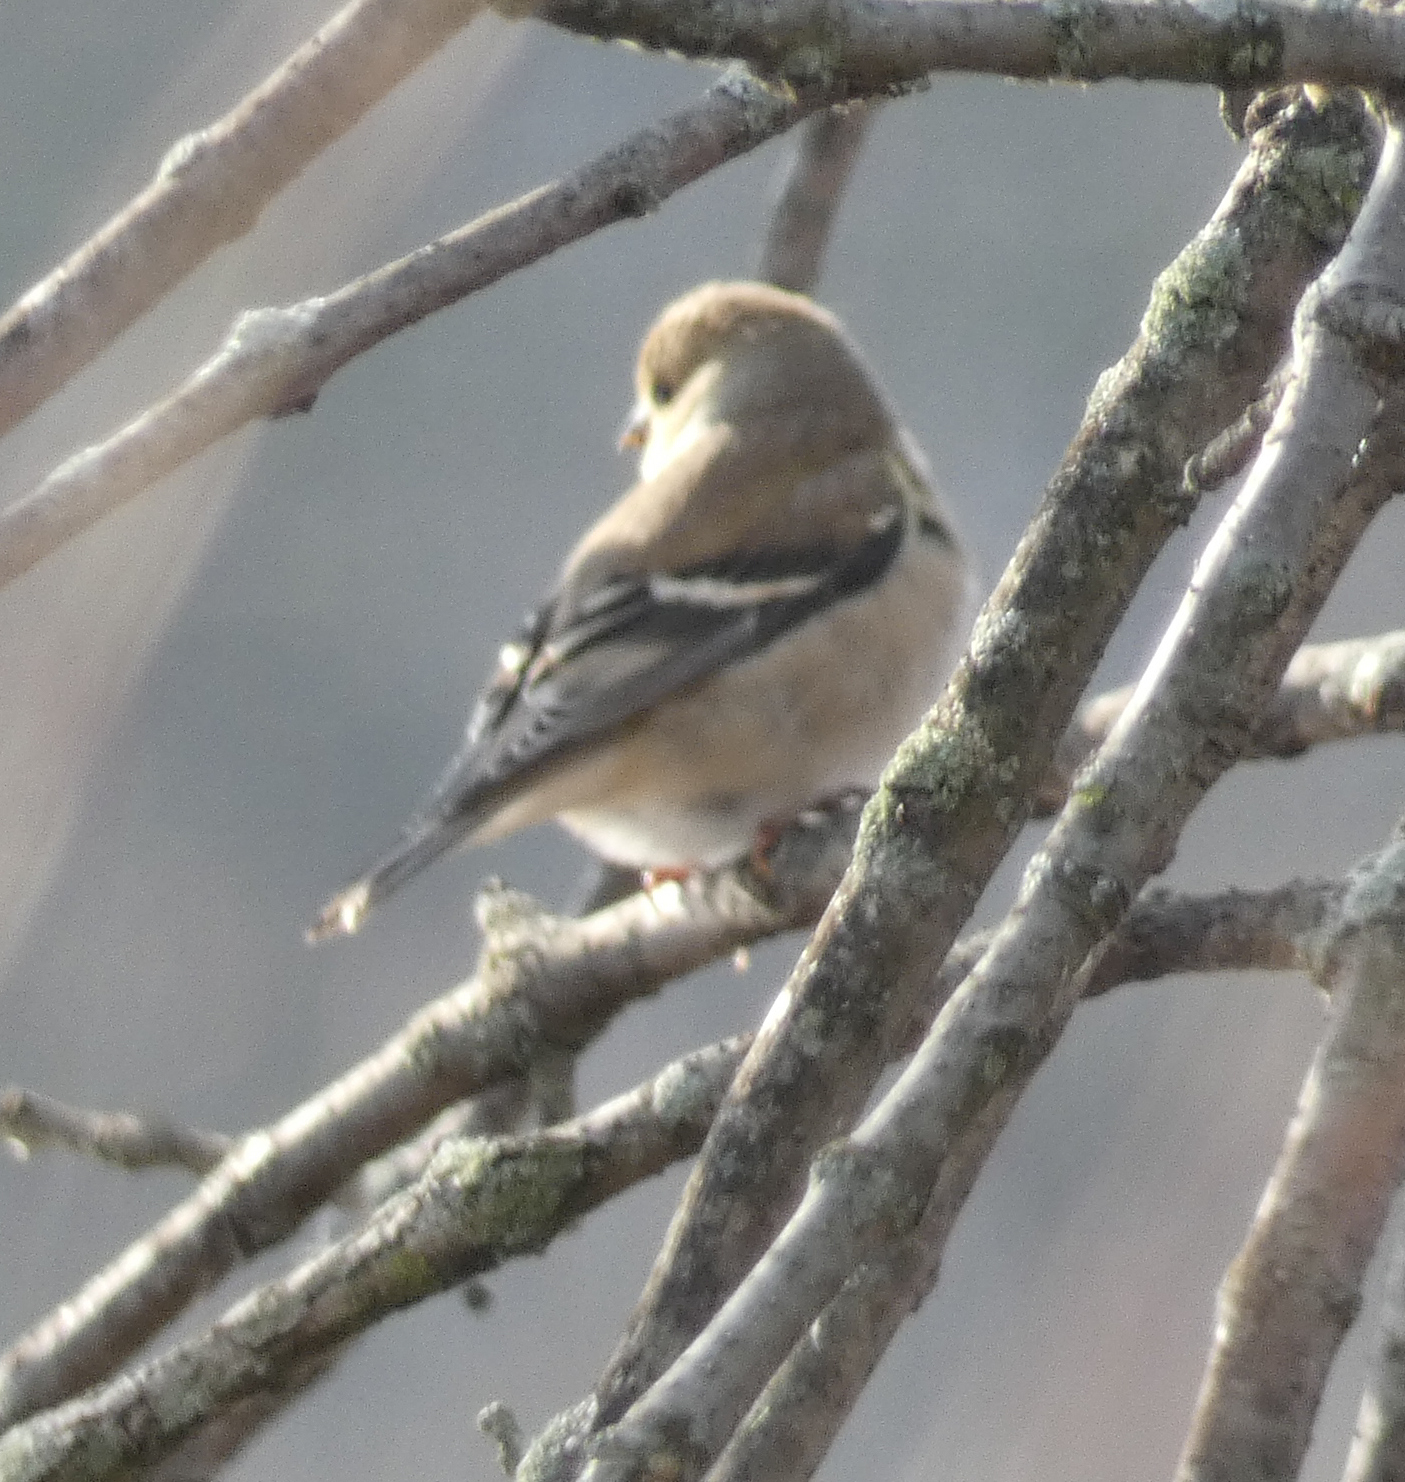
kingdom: Animalia
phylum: Chordata
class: Aves
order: Passeriformes
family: Fringillidae
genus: Spinus
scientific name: Spinus tristis
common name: American goldfinch
